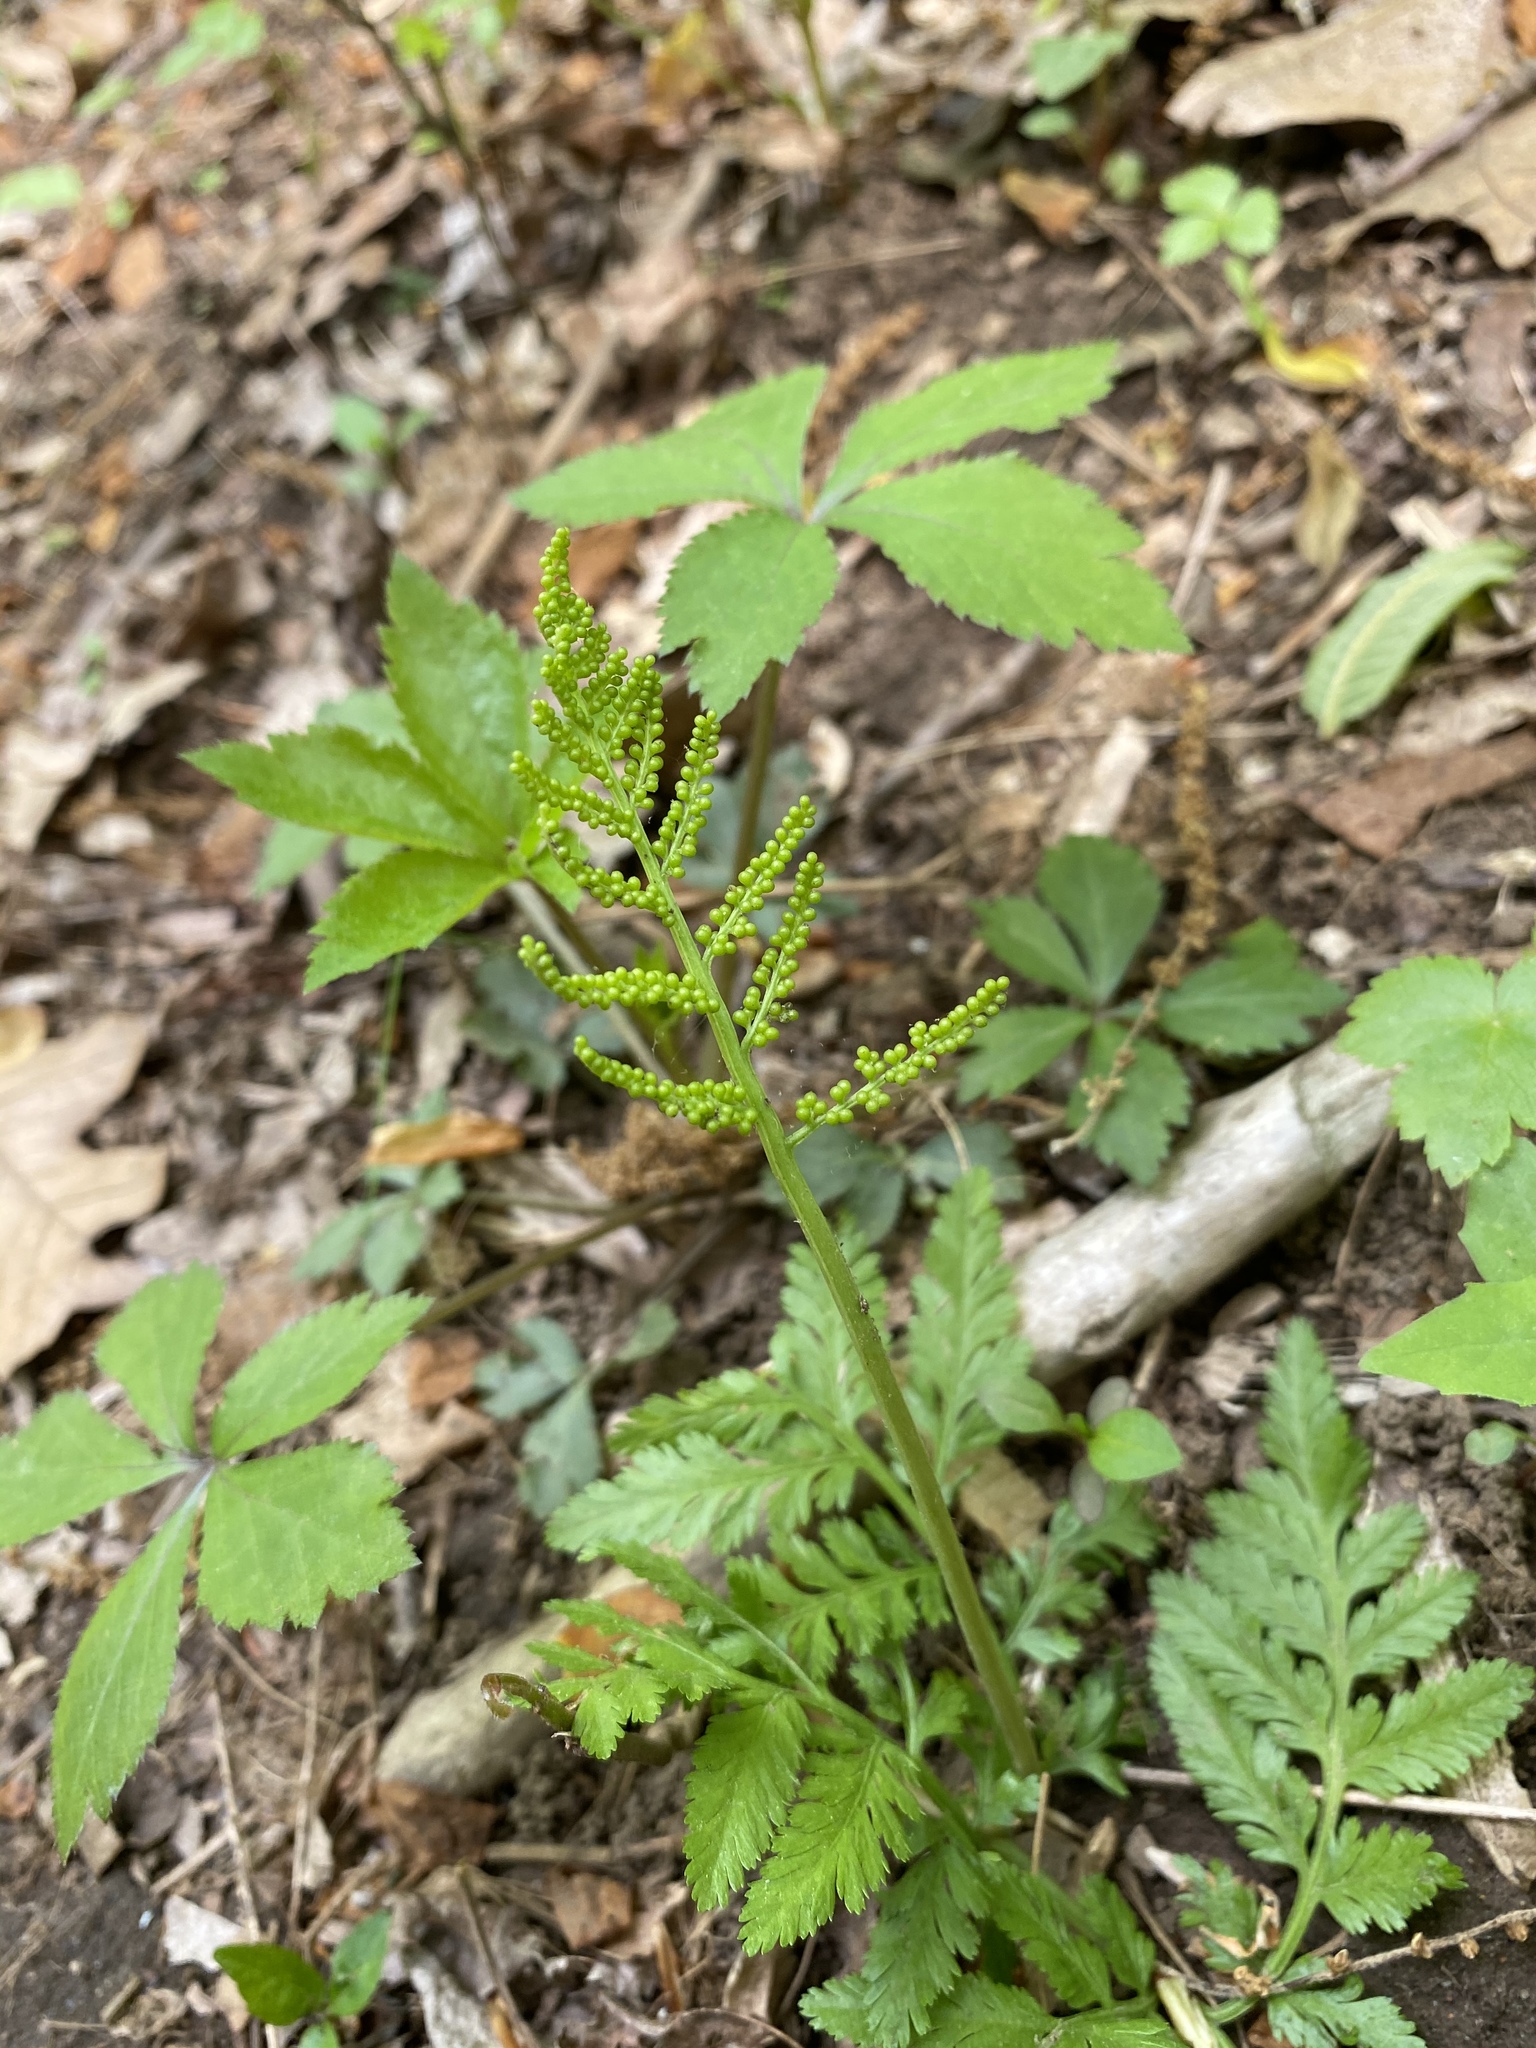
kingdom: Plantae
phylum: Tracheophyta
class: Polypodiopsida
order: Ophioglossales
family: Ophioglossaceae
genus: Botrypus
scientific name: Botrypus virginianus
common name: Common grapefern
